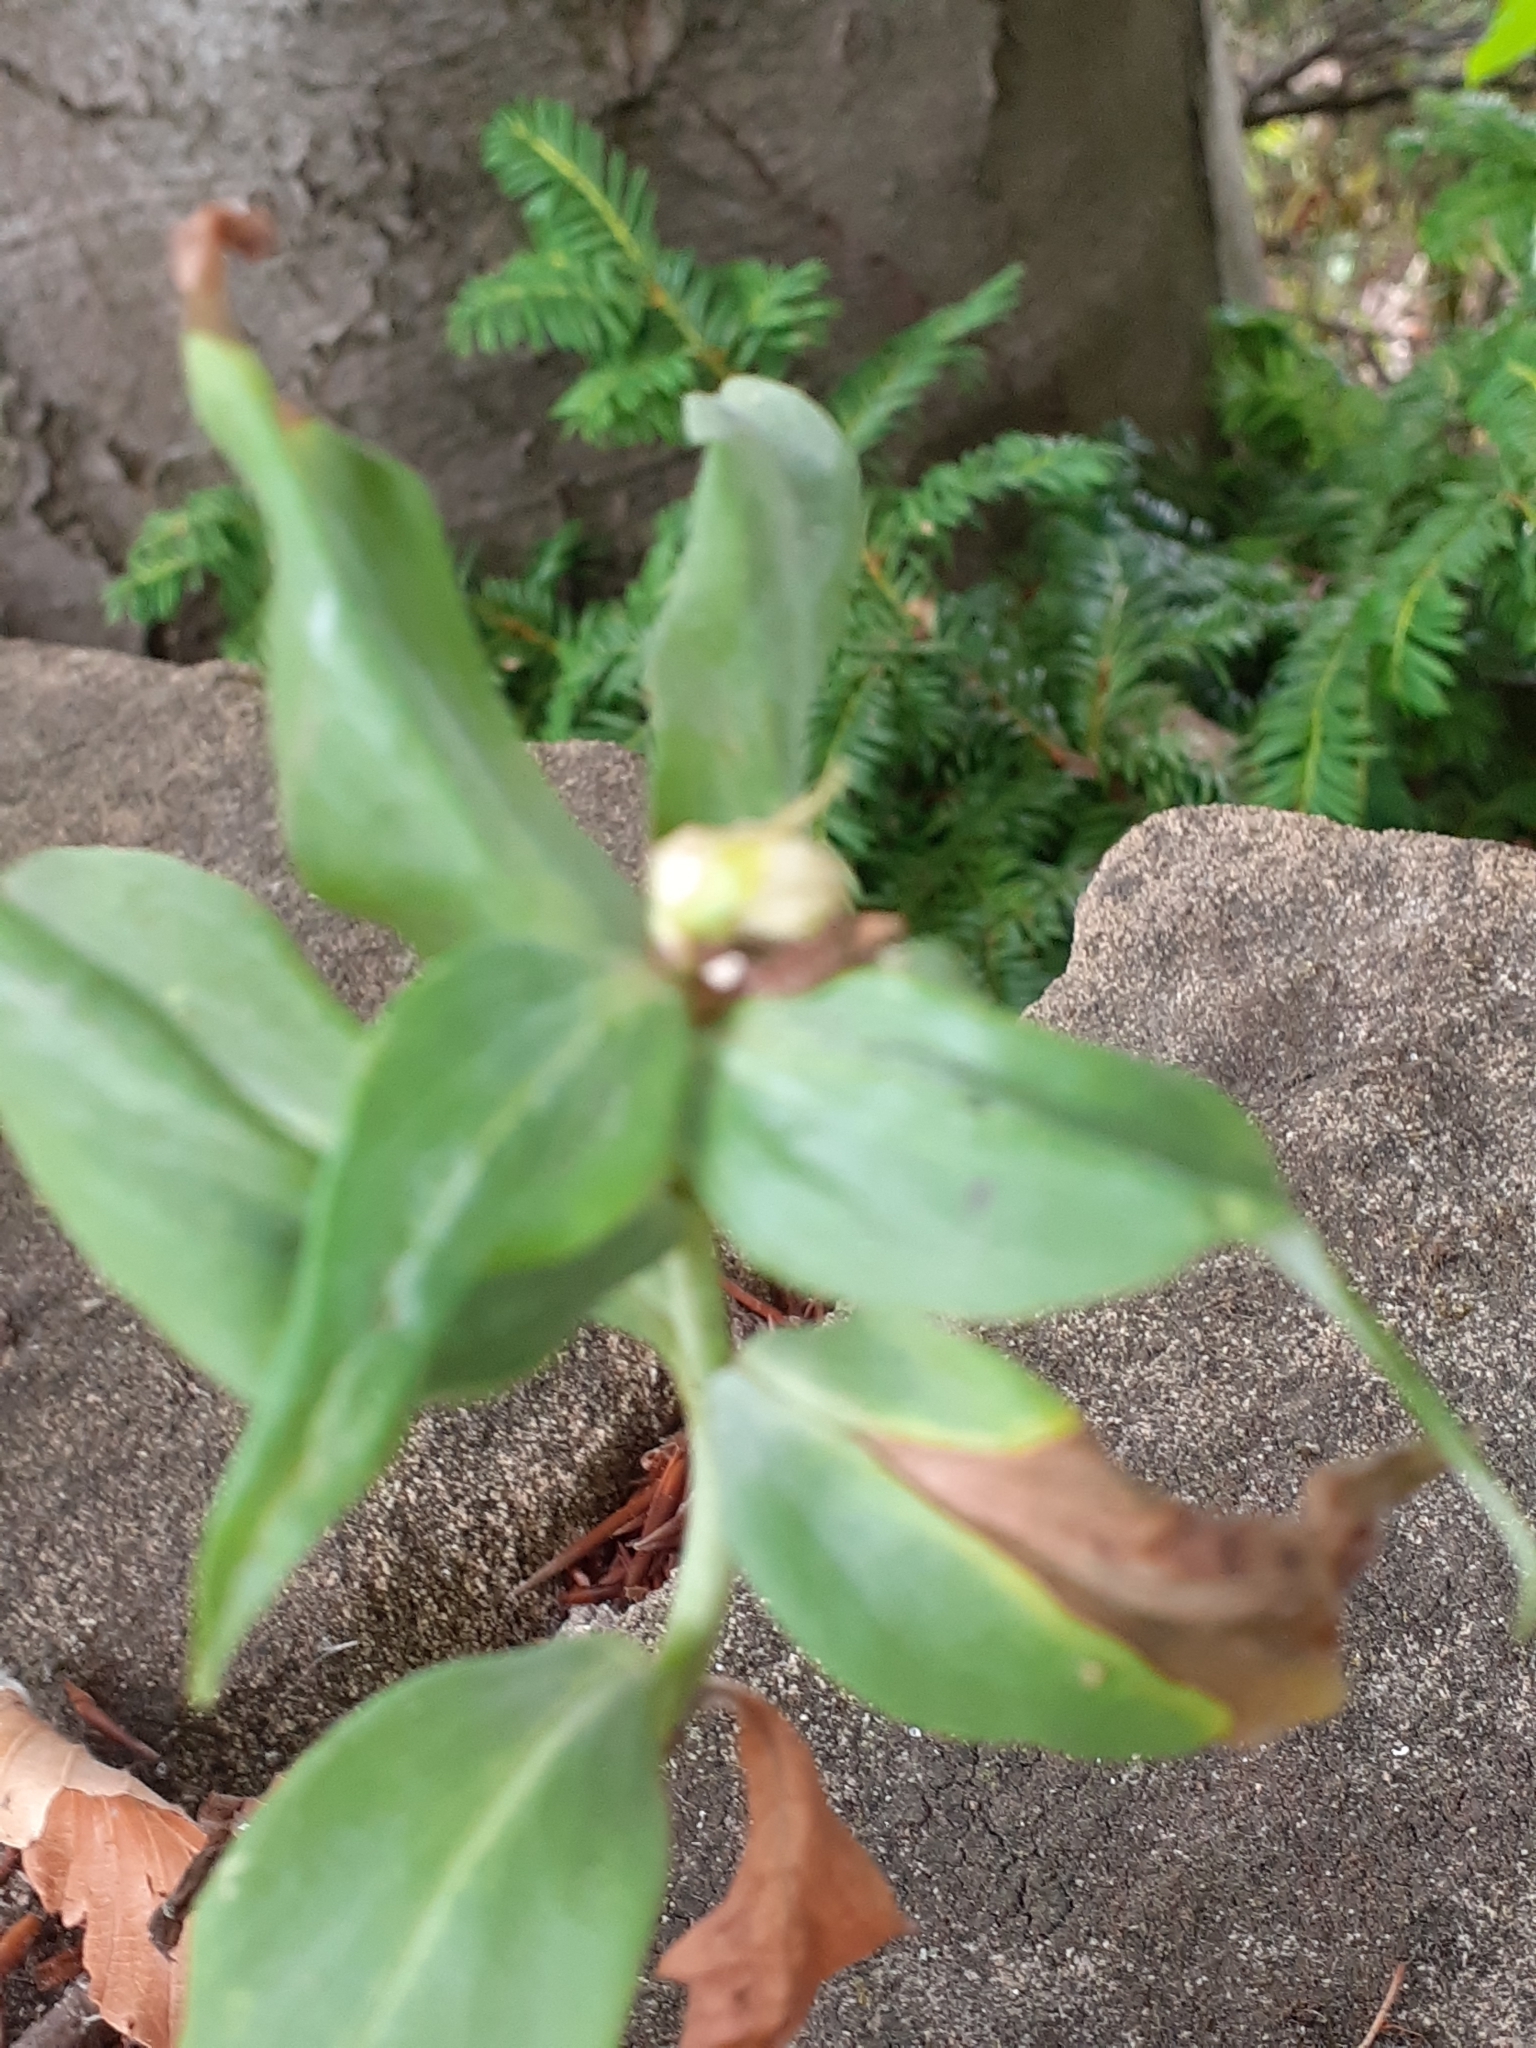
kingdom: Animalia
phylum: Arthropoda
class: Insecta
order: Hemiptera
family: Triozidae
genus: Trioza
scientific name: Trioza centranthi
